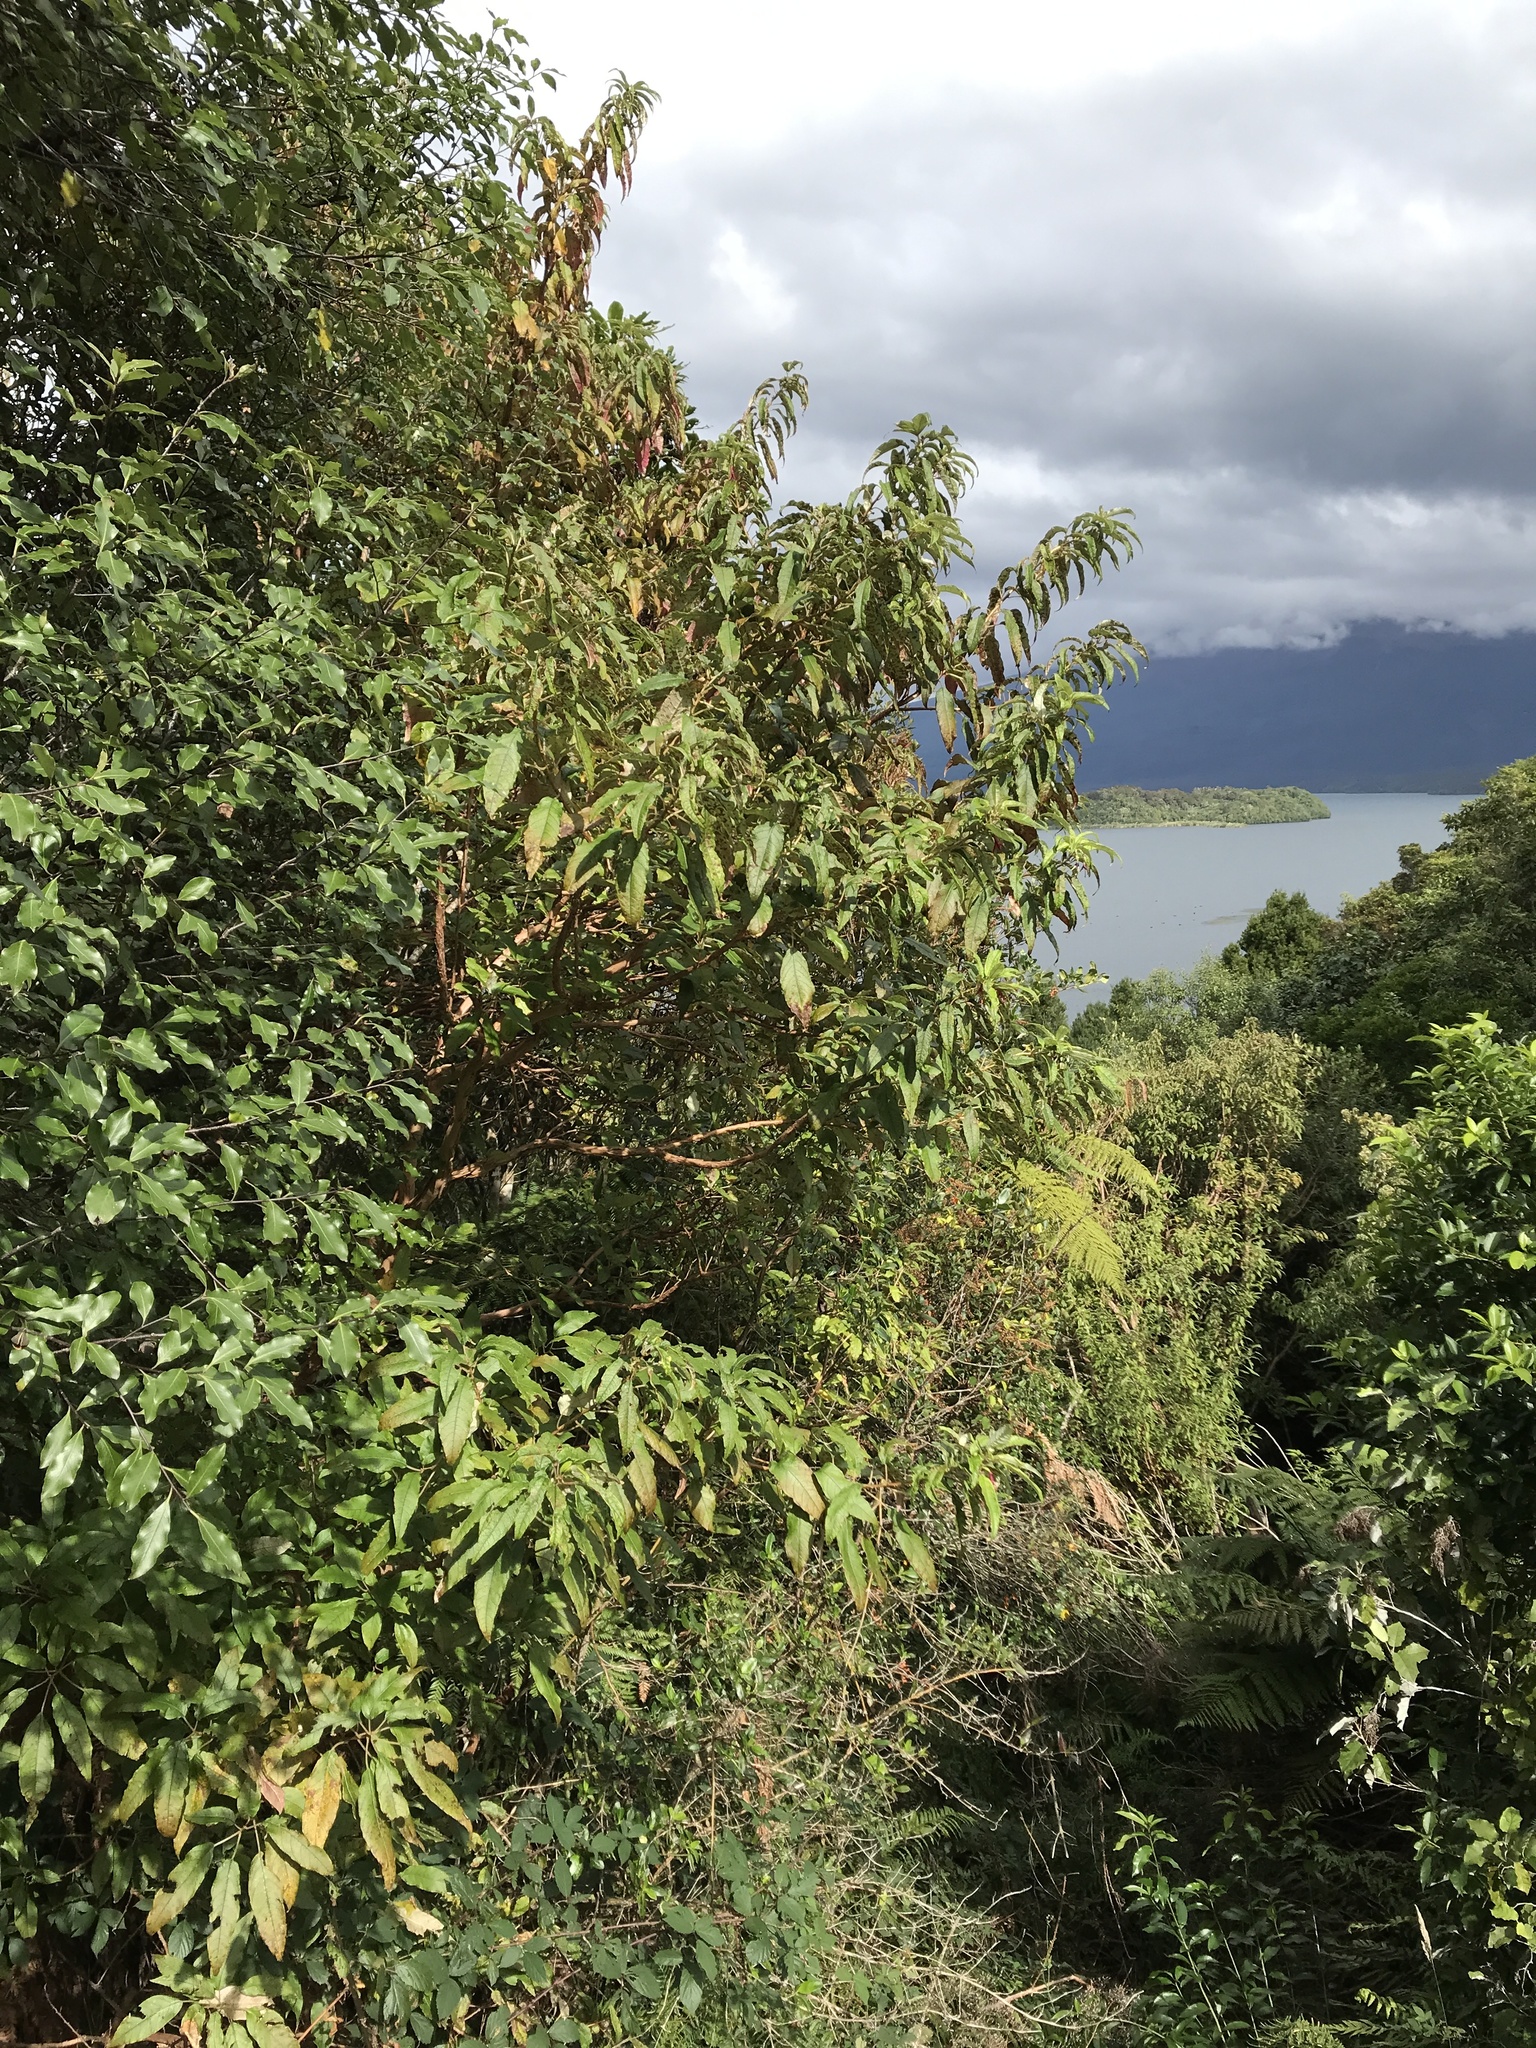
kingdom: Plantae
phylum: Tracheophyta
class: Magnoliopsida
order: Myrtales
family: Onagraceae
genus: Fuchsia
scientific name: Fuchsia excorticata
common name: Tree fuchsia
